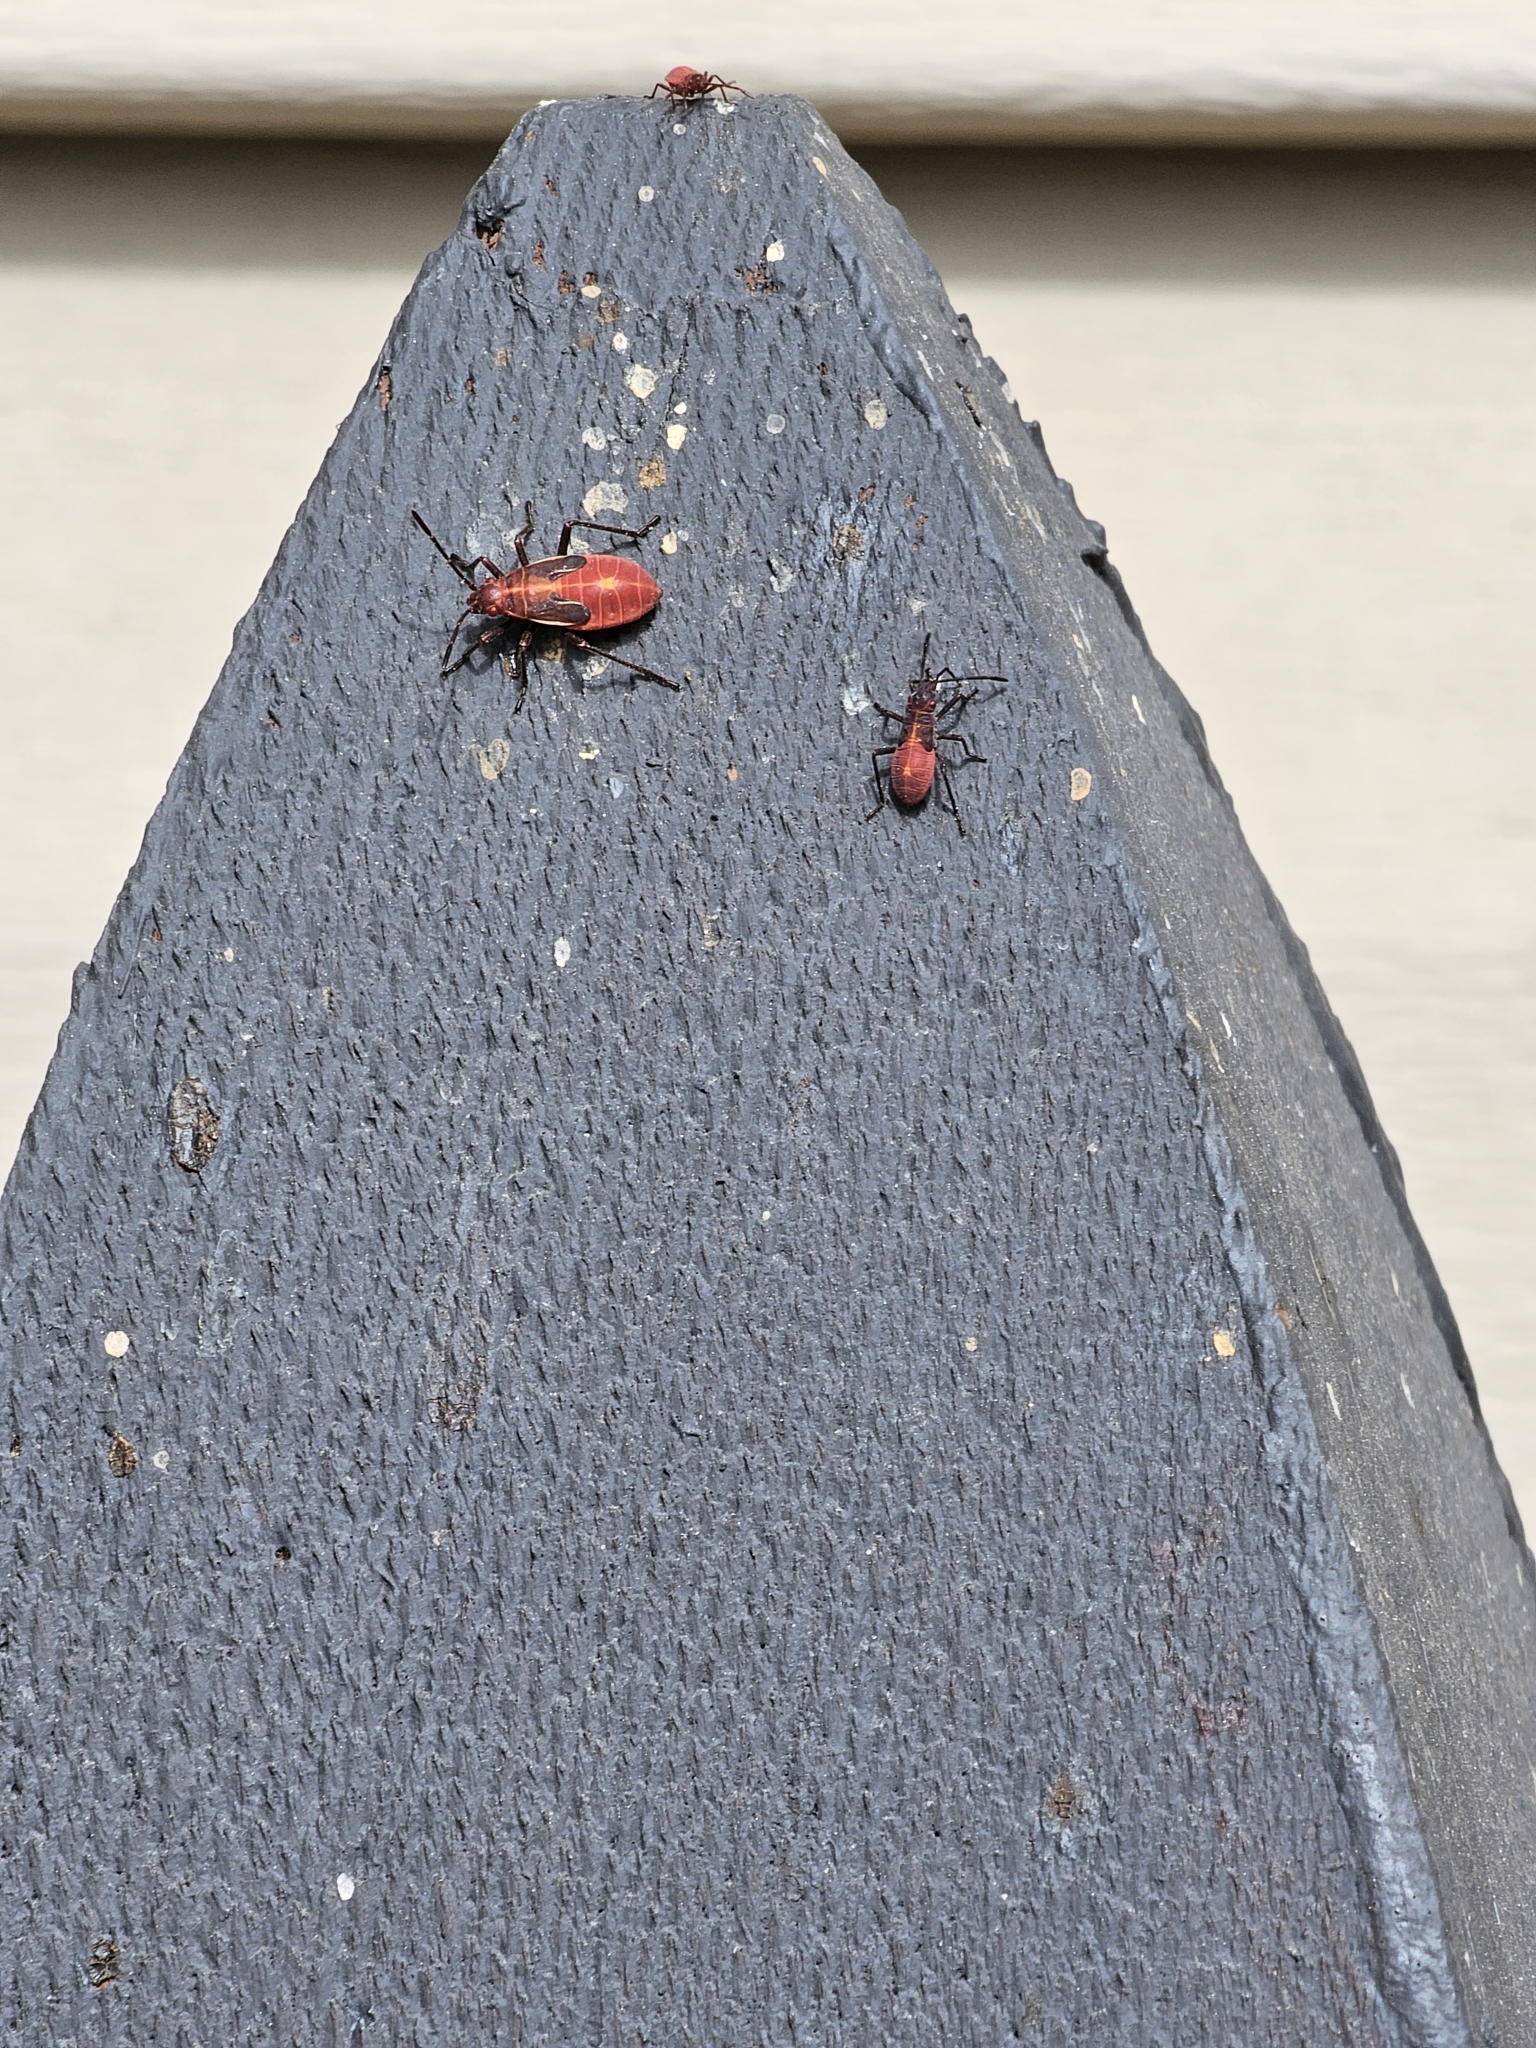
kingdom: Animalia
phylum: Arthropoda
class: Insecta
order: Hemiptera
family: Rhopalidae
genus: Boisea
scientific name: Boisea rubrolineata
